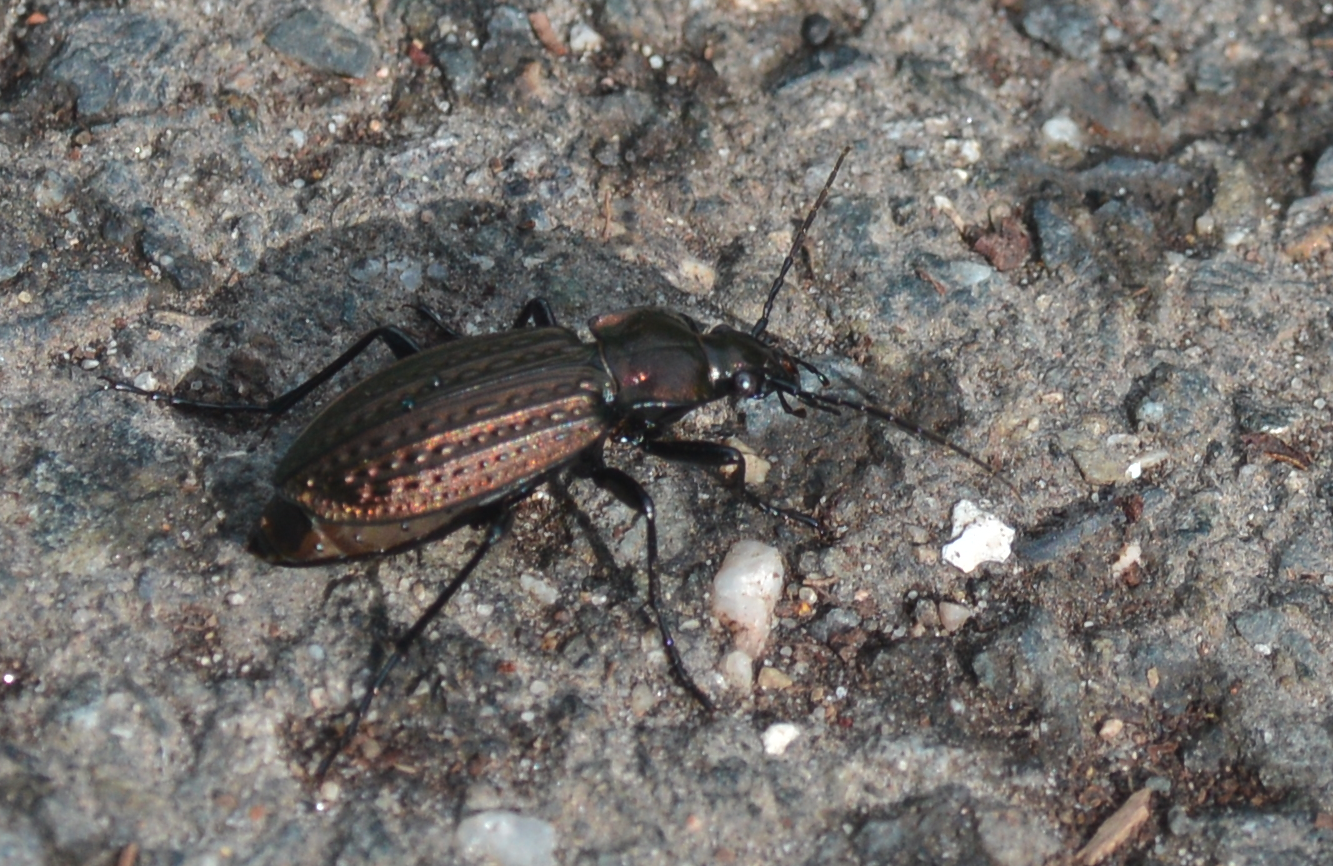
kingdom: Animalia
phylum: Arthropoda
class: Insecta
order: Coleoptera
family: Carabidae
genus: Carabus
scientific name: Carabus granulatus
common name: Granulate ground beetle
